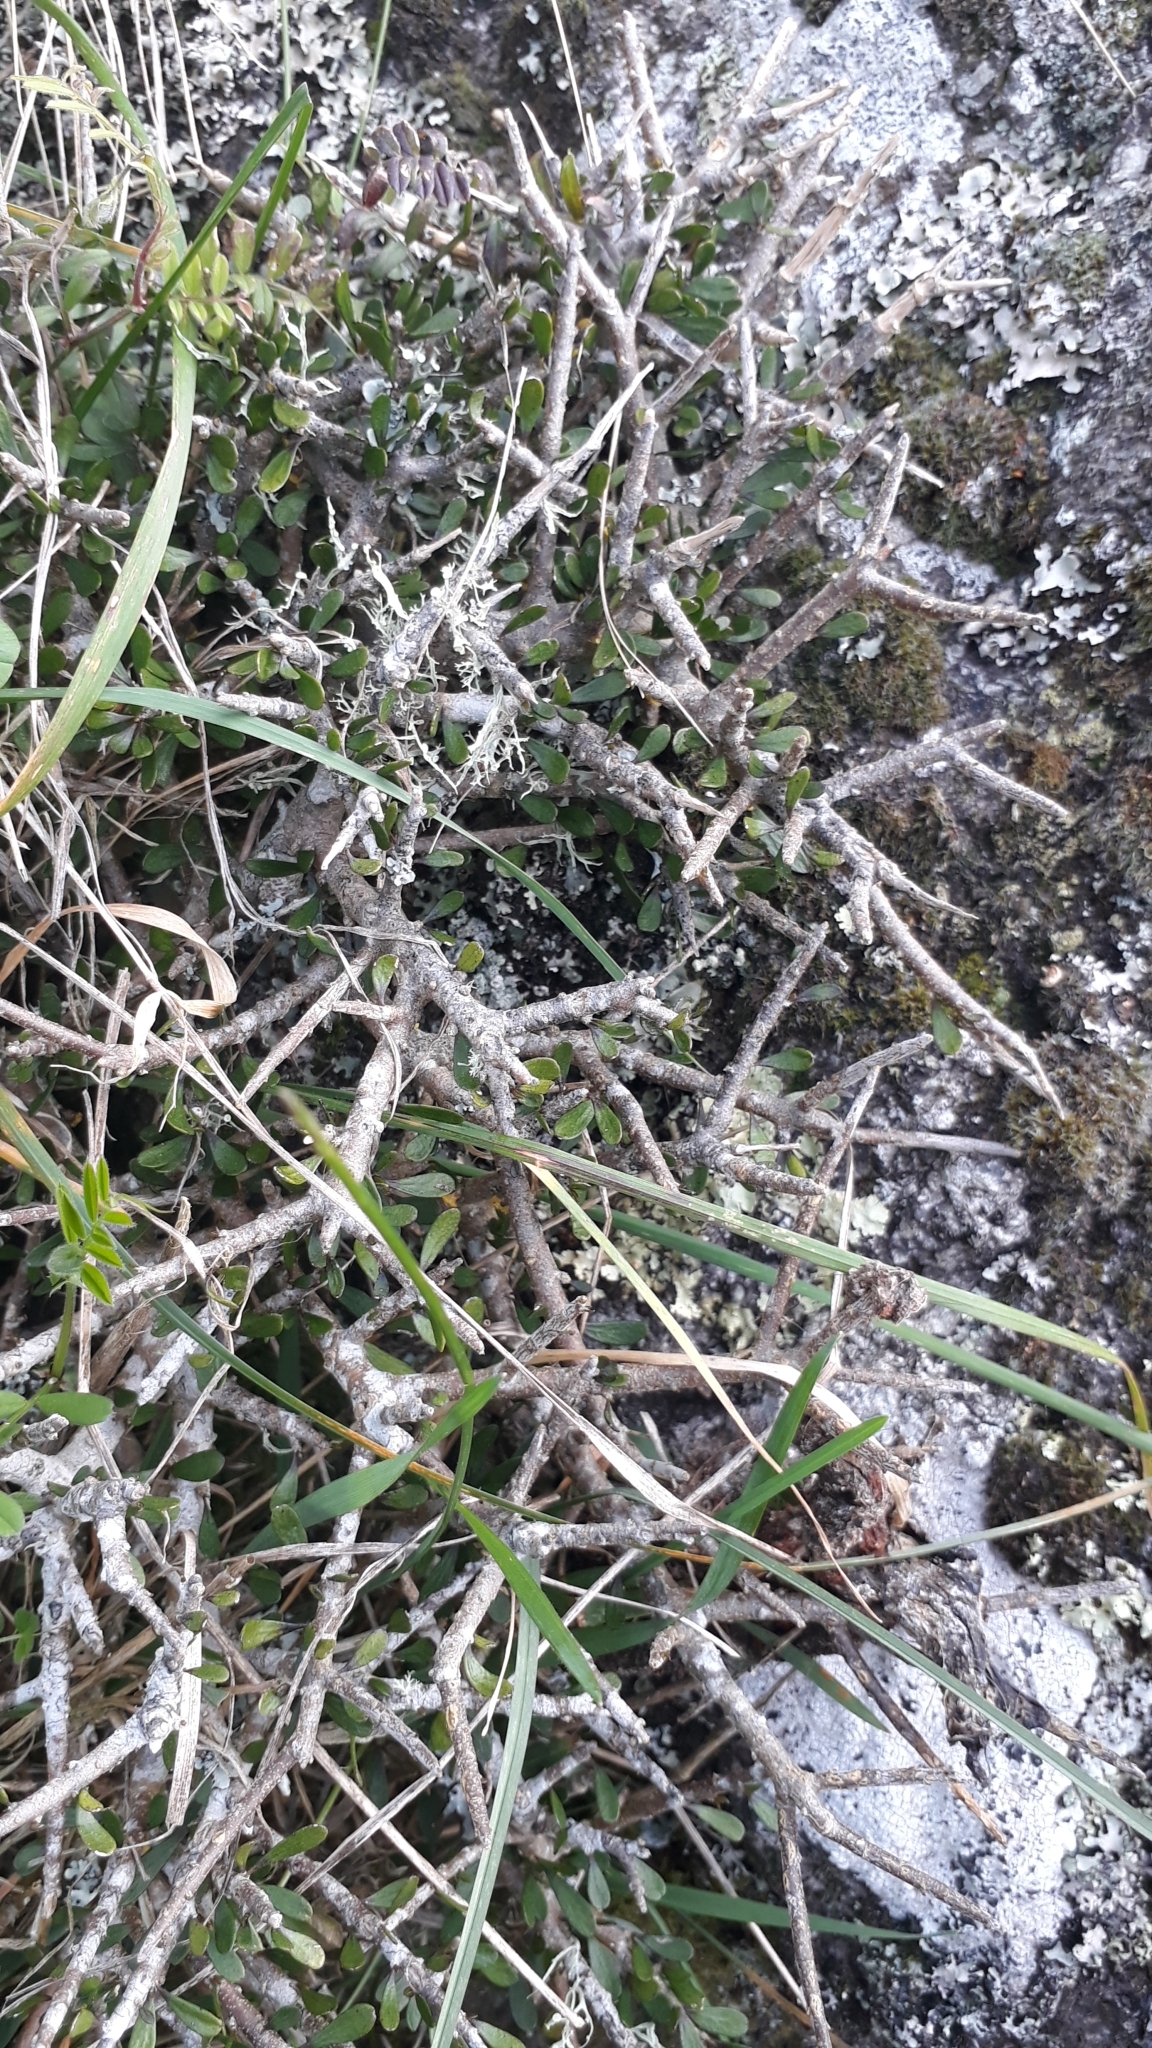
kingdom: Plantae
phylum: Tracheophyta
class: Magnoliopsida
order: Malpighiales
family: Violaceae
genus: Melicytus
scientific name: Melicytus alpinus
